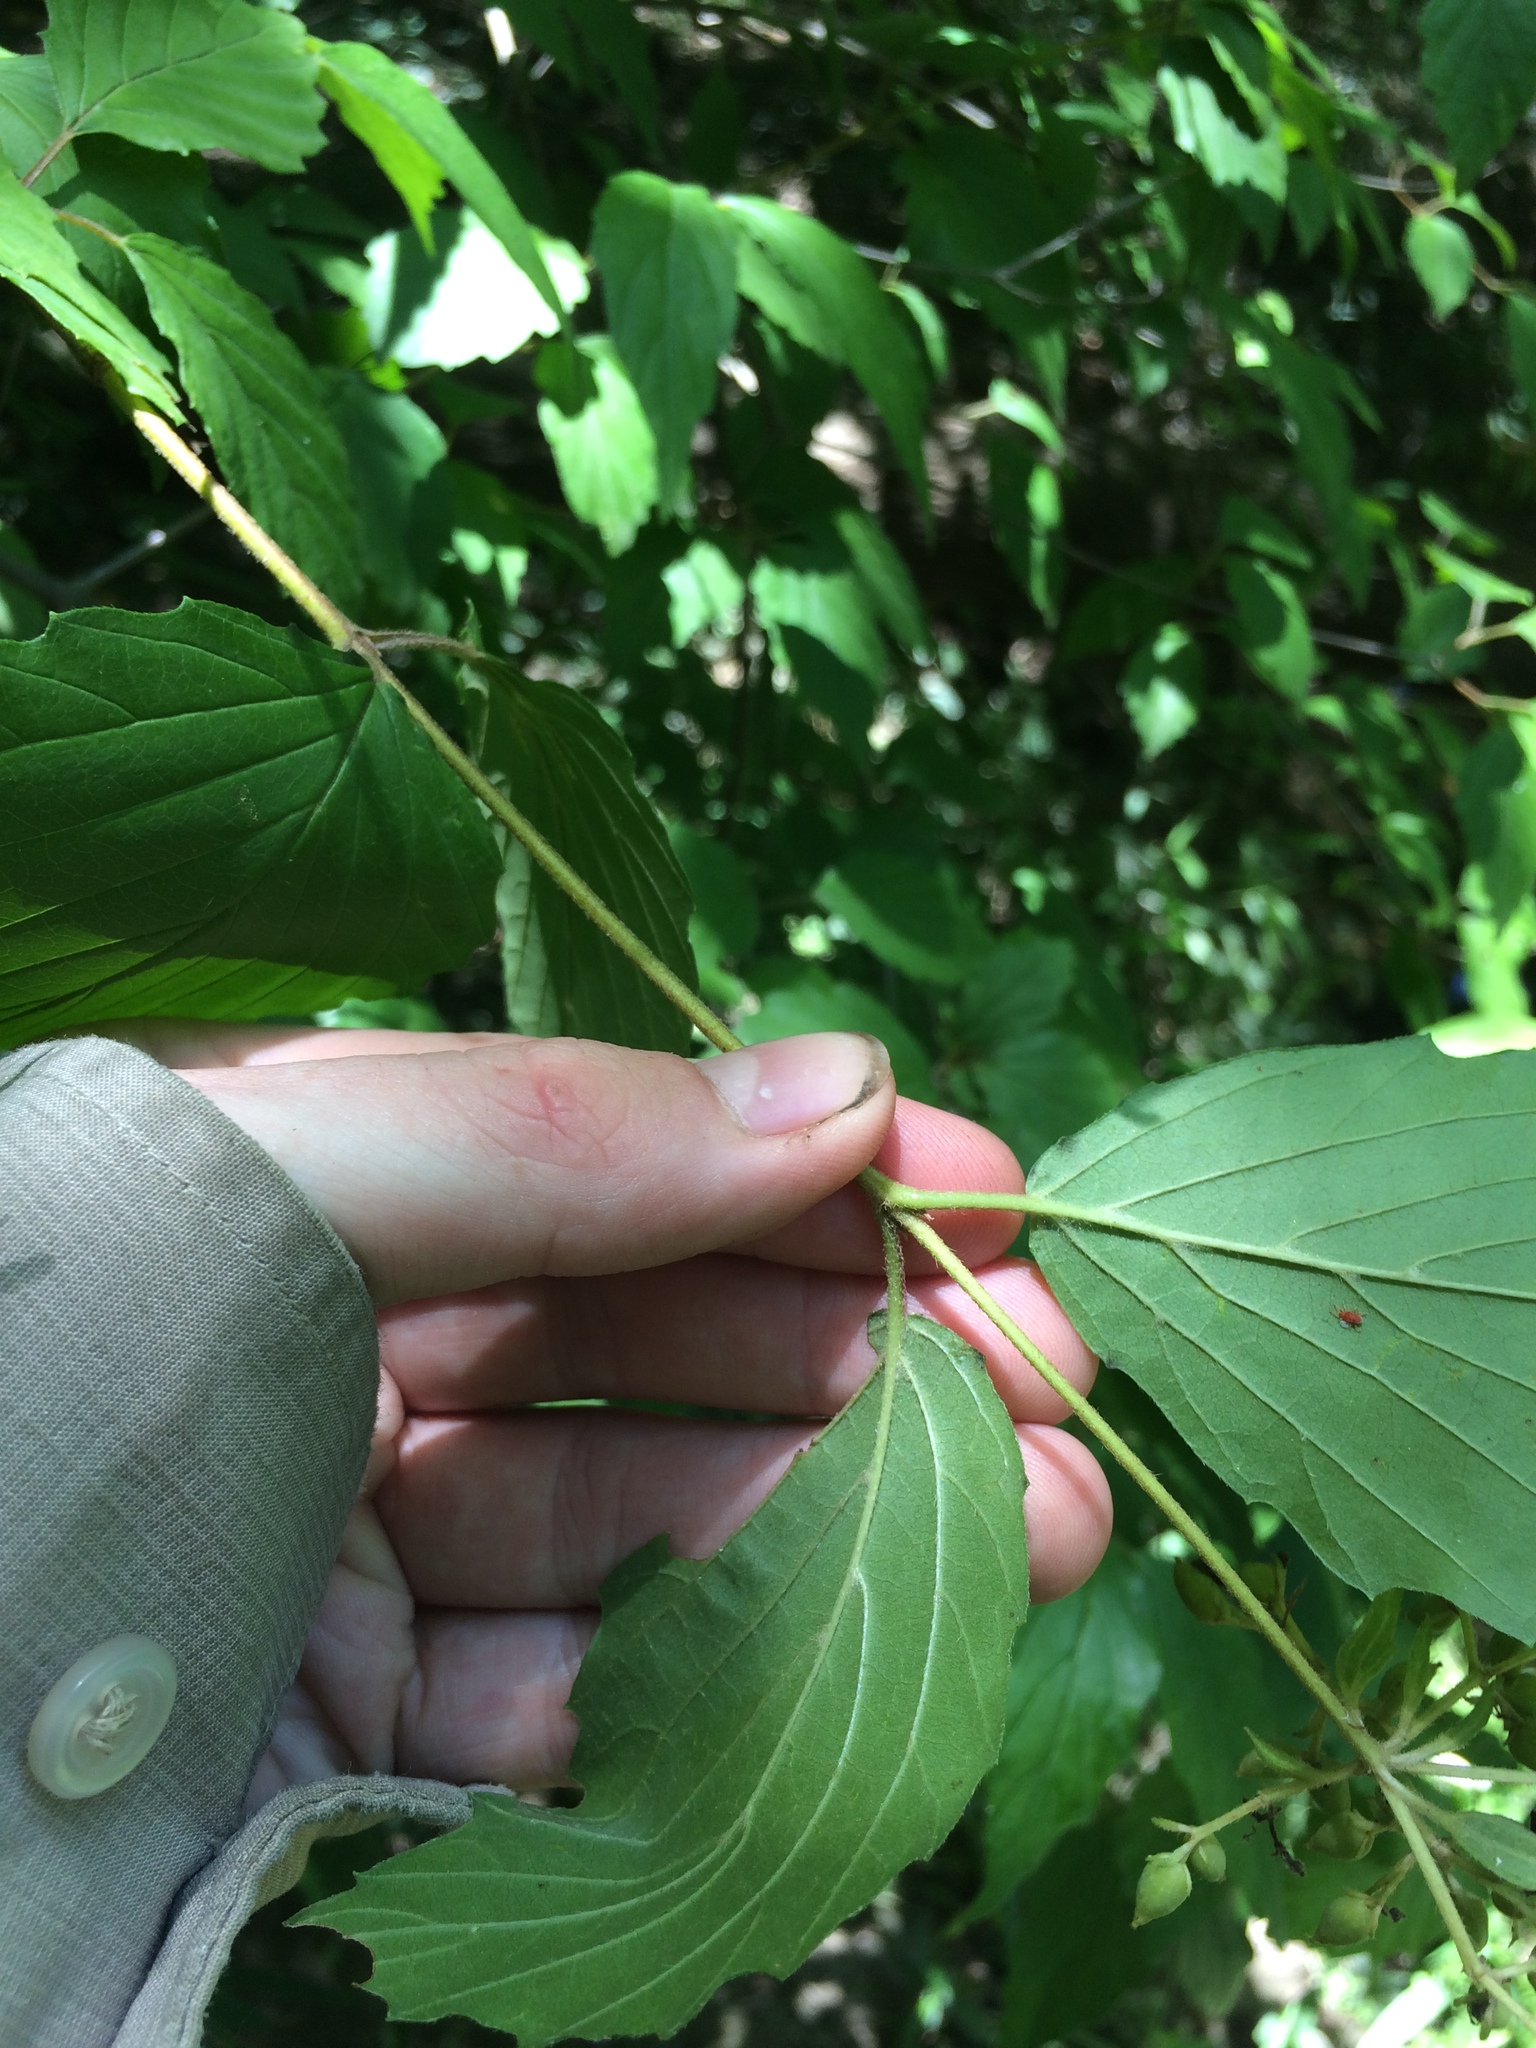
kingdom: Plantae
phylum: Tracheophyta
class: Magnoliopsida
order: Dipsacales
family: Viburnaceae
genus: Viburnum
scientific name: Viburnum scabrellum
